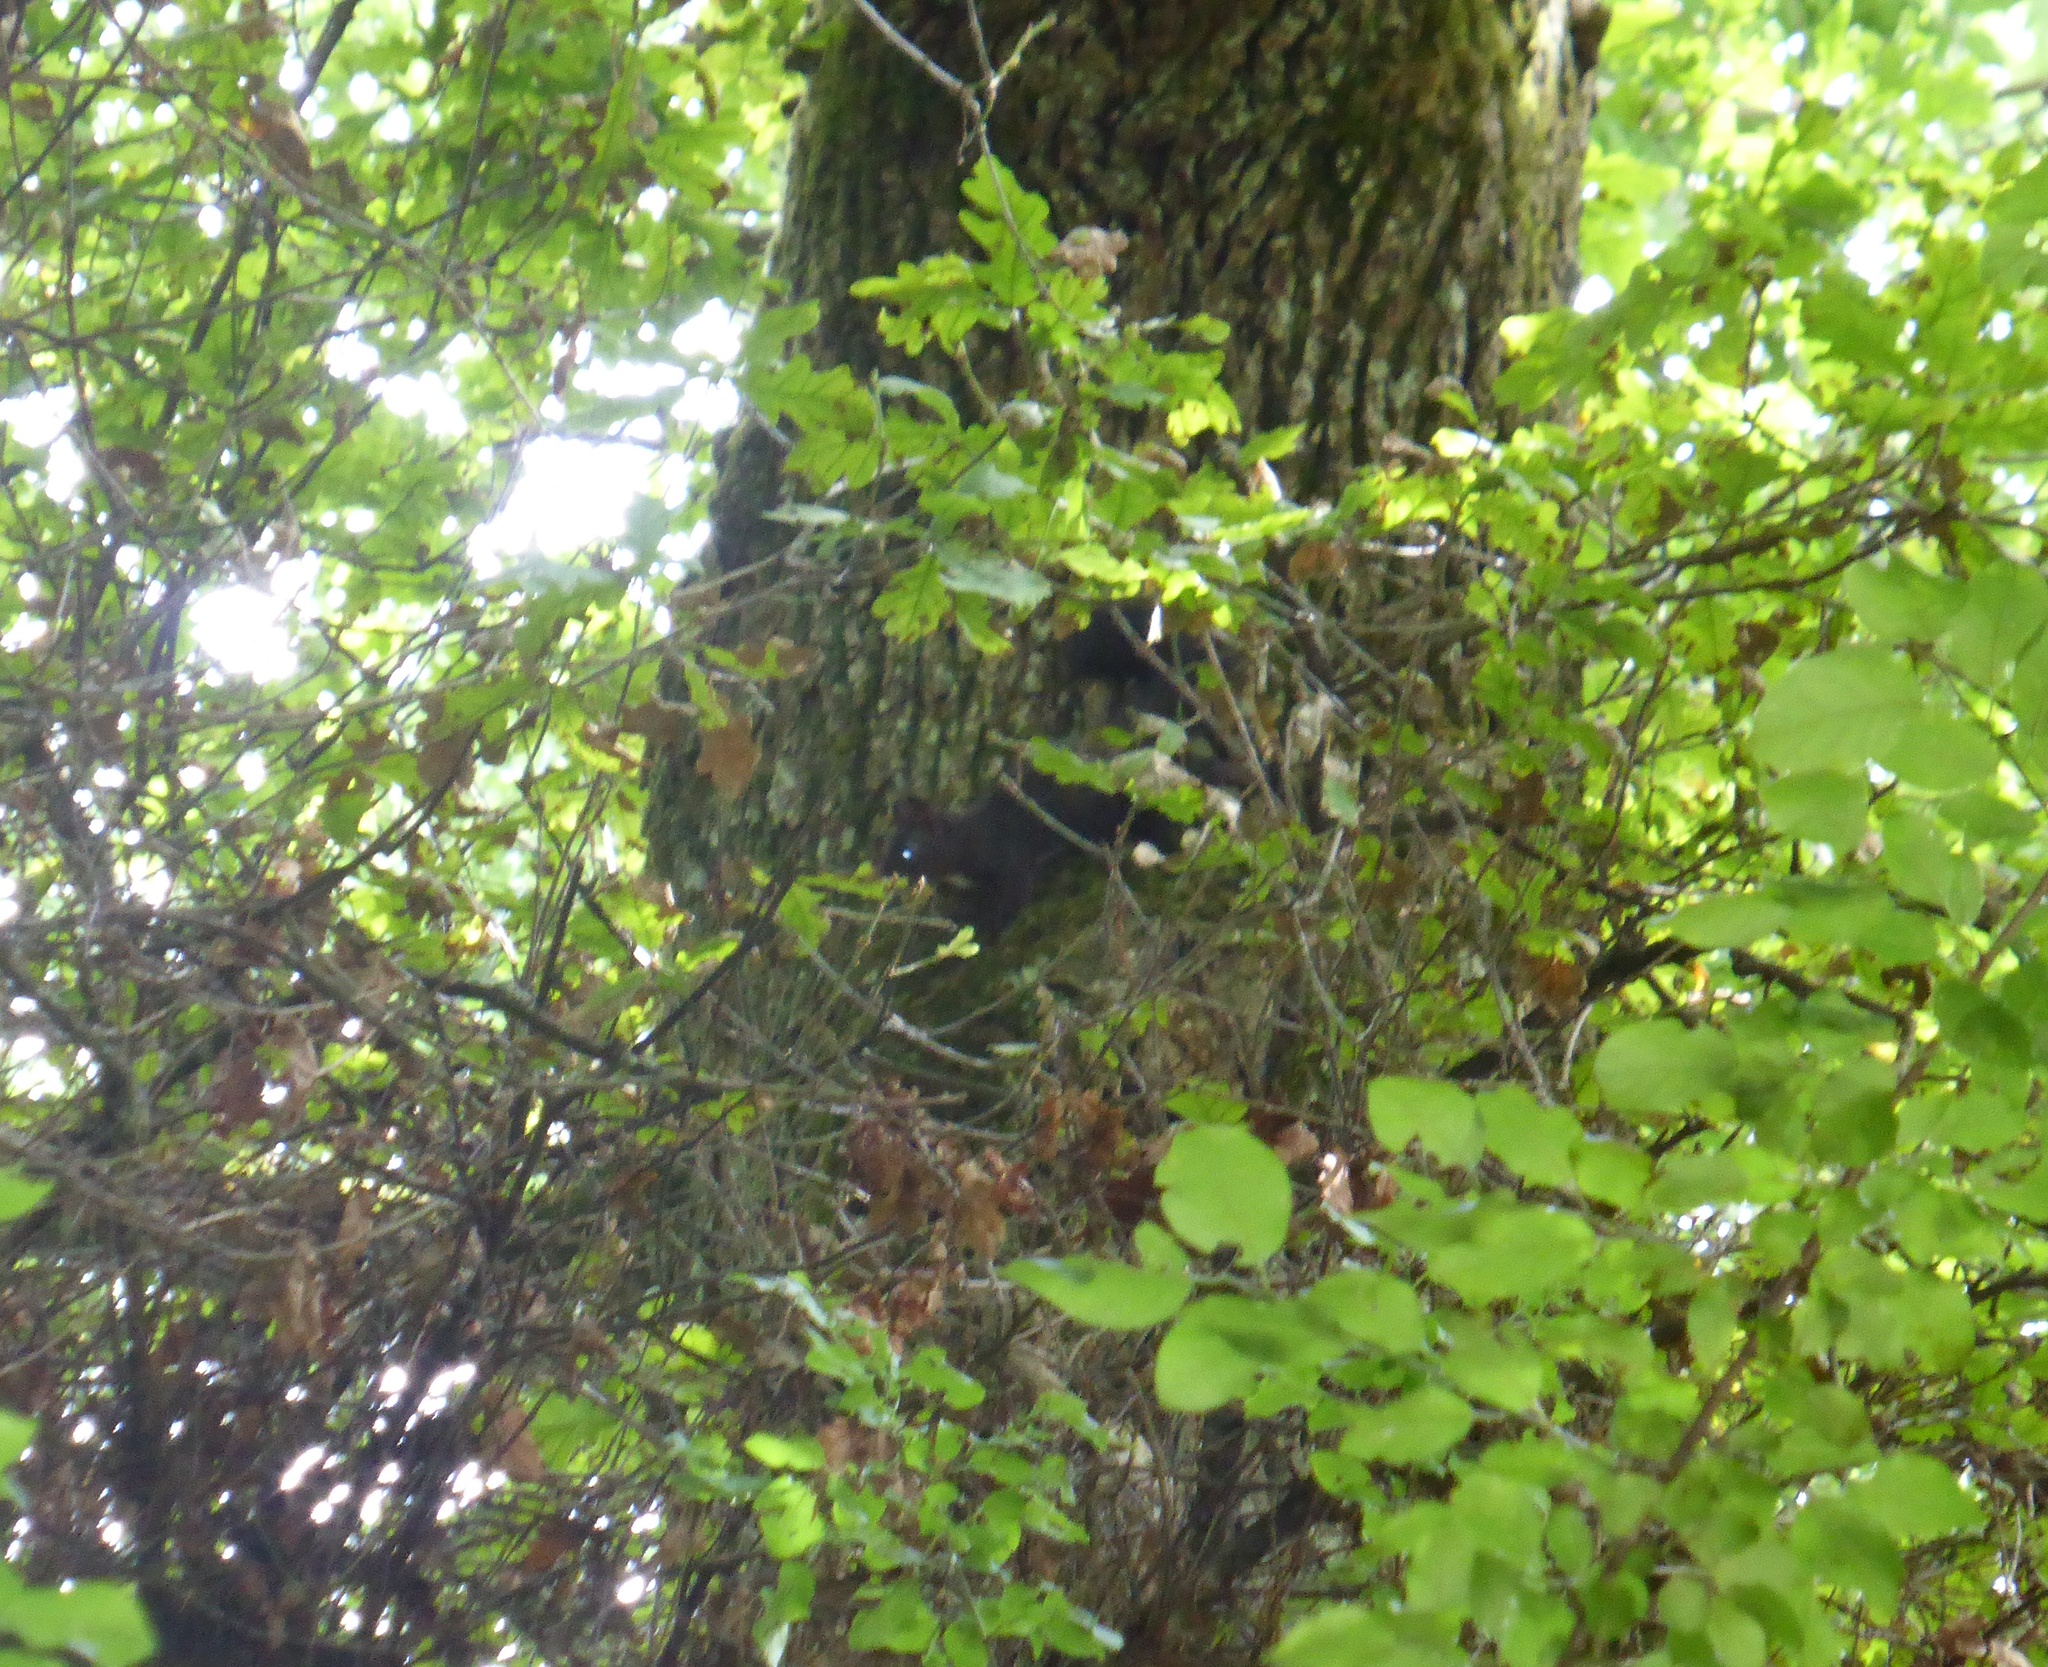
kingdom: Animalia
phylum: Chordata
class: Mammalia
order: Rodentia
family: Sciuridae
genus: Sciurus
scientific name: Sciurus vulgaris
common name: Eurasian red squirrel
